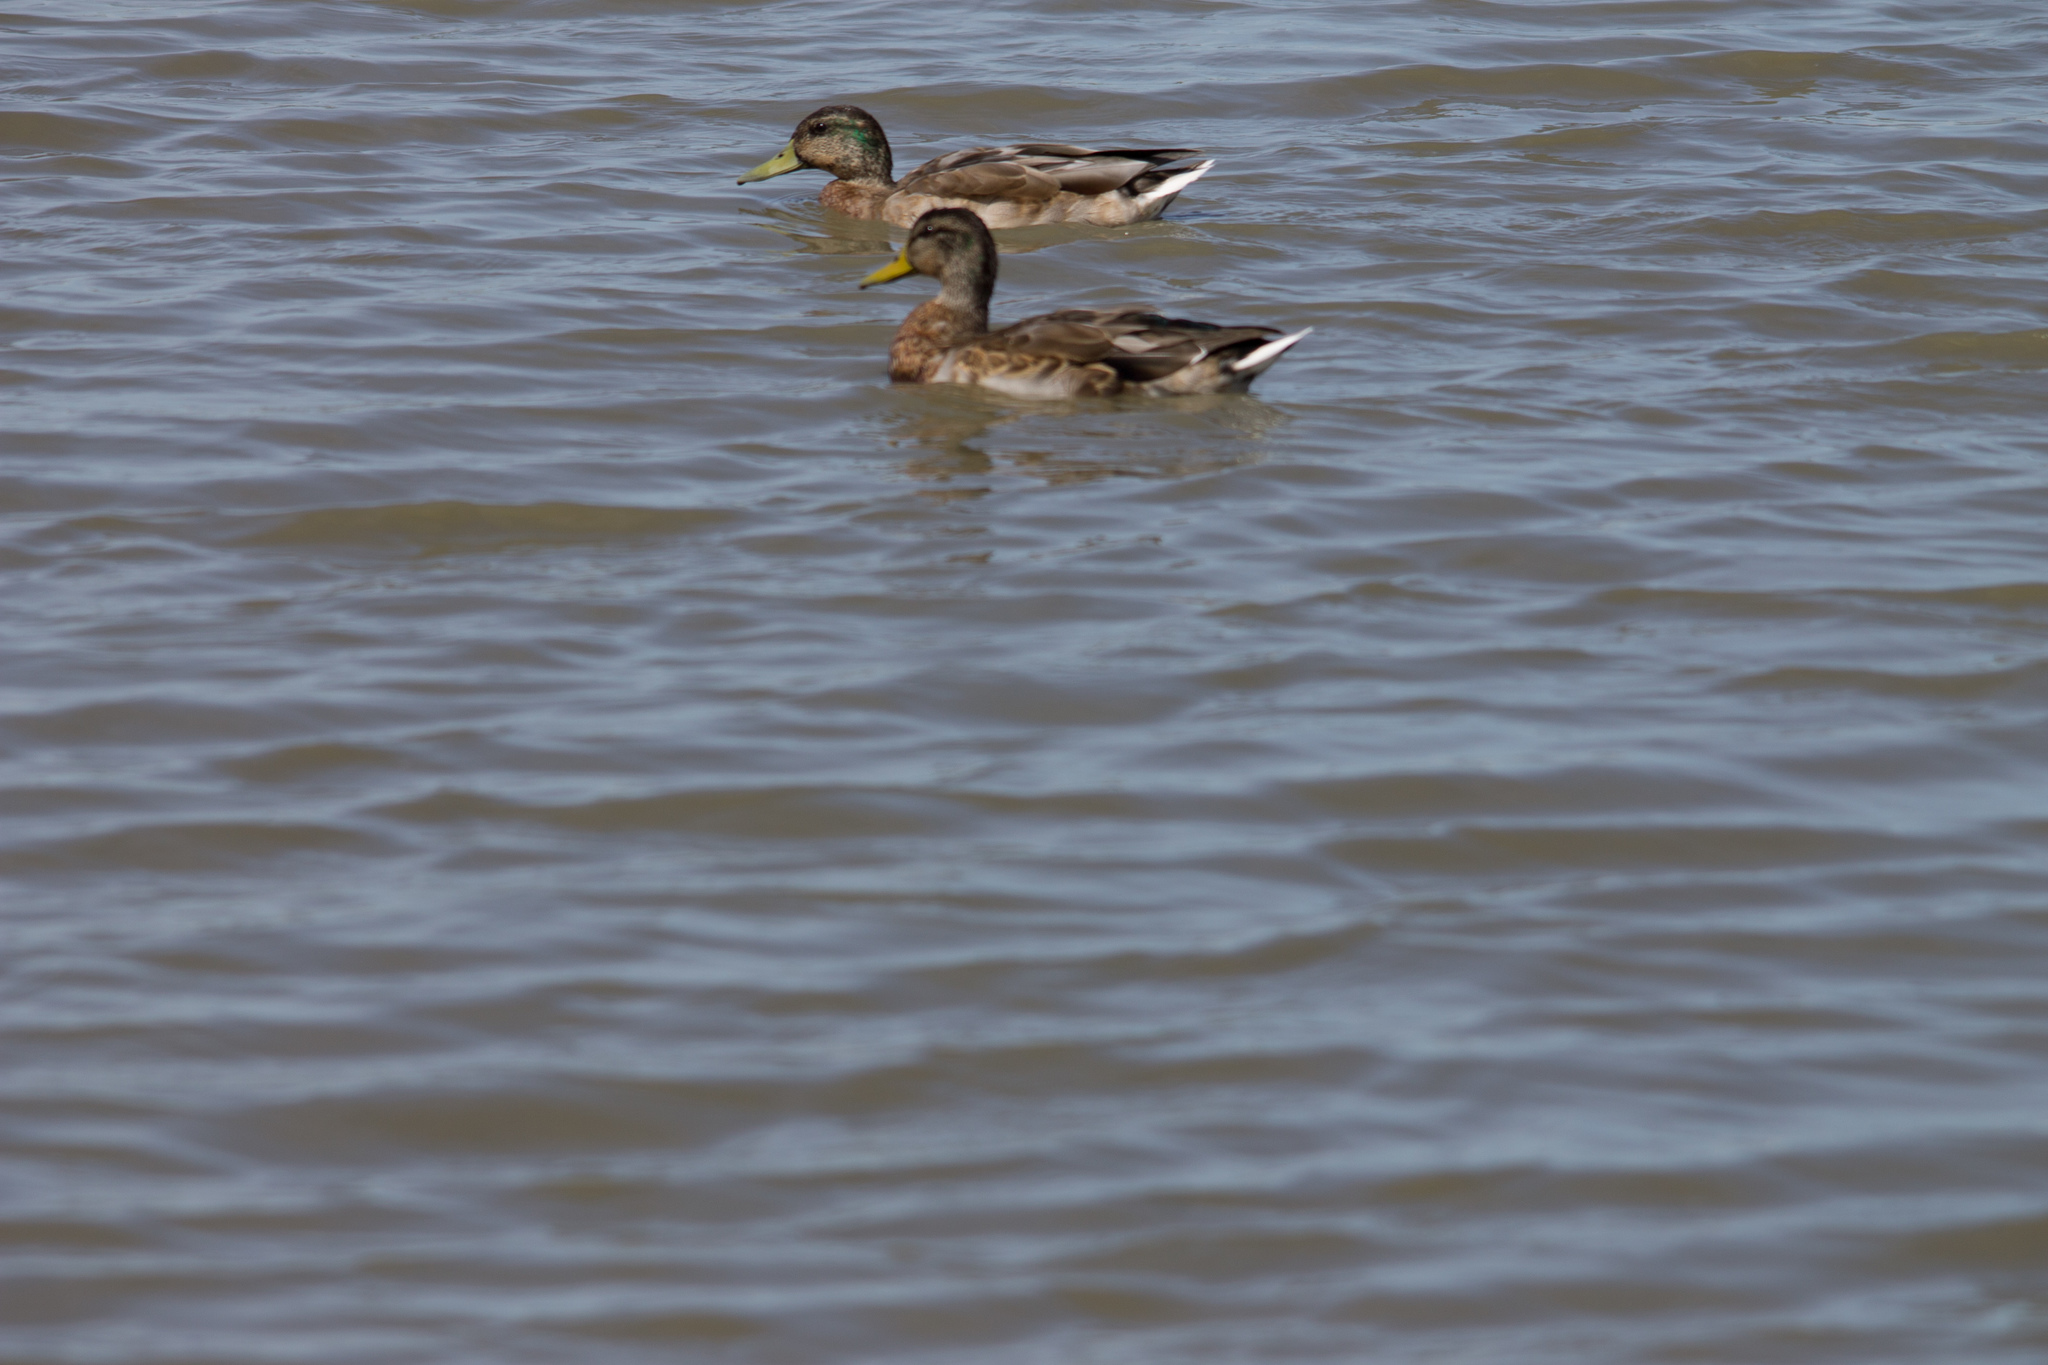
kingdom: Animalia
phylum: Chordata
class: Aves
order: Anseriformes
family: Anatidae
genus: Anas
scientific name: Anas platyrhynchos
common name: Mallard
